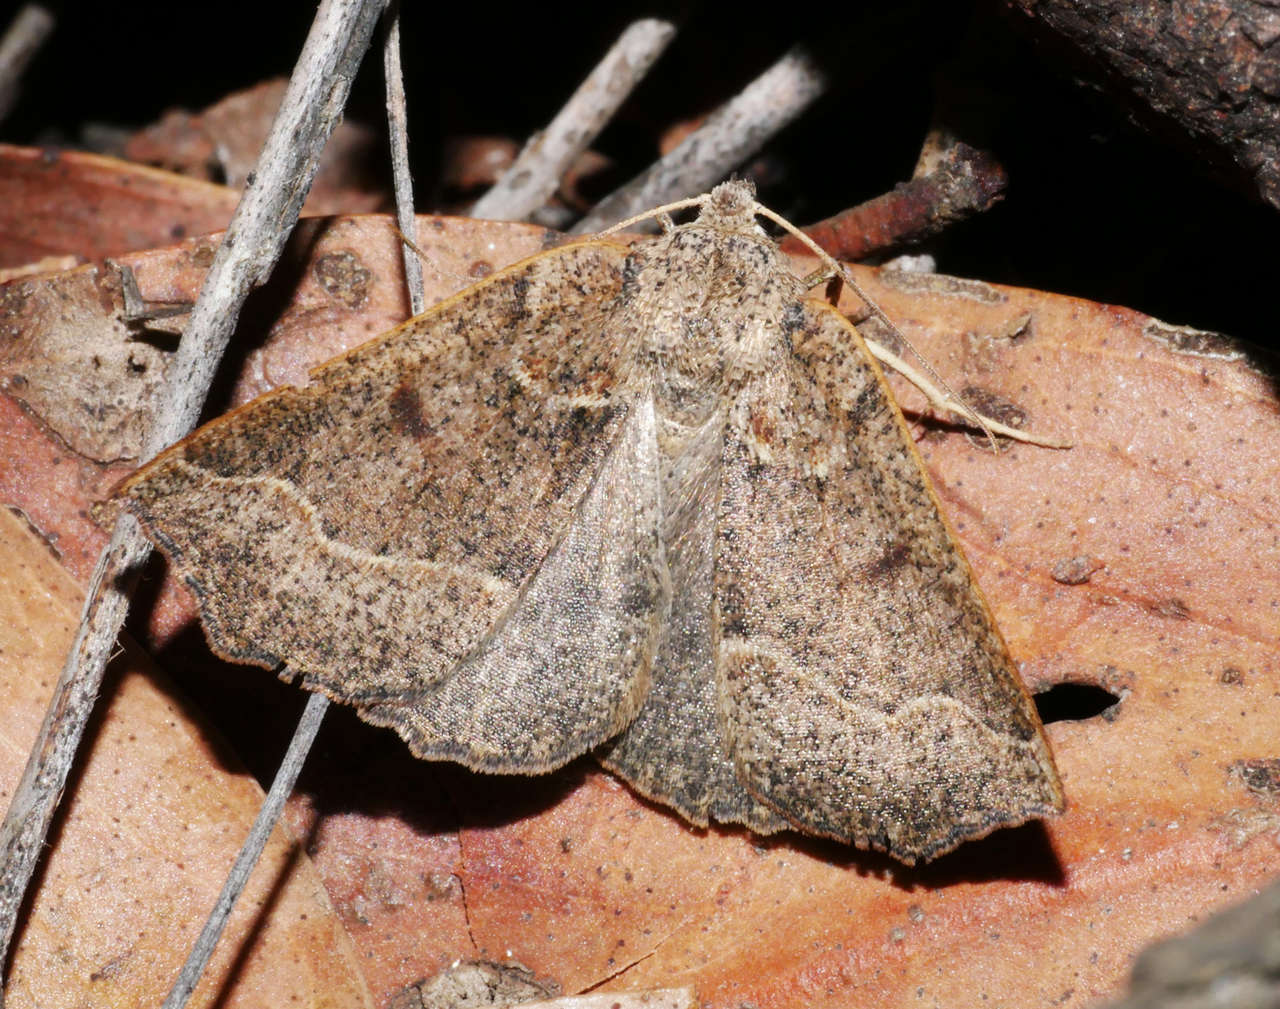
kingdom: Animalia
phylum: Arthropoda
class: Insecta
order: Lepidoptera
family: Geometridae
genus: Androchela
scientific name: Androchela
